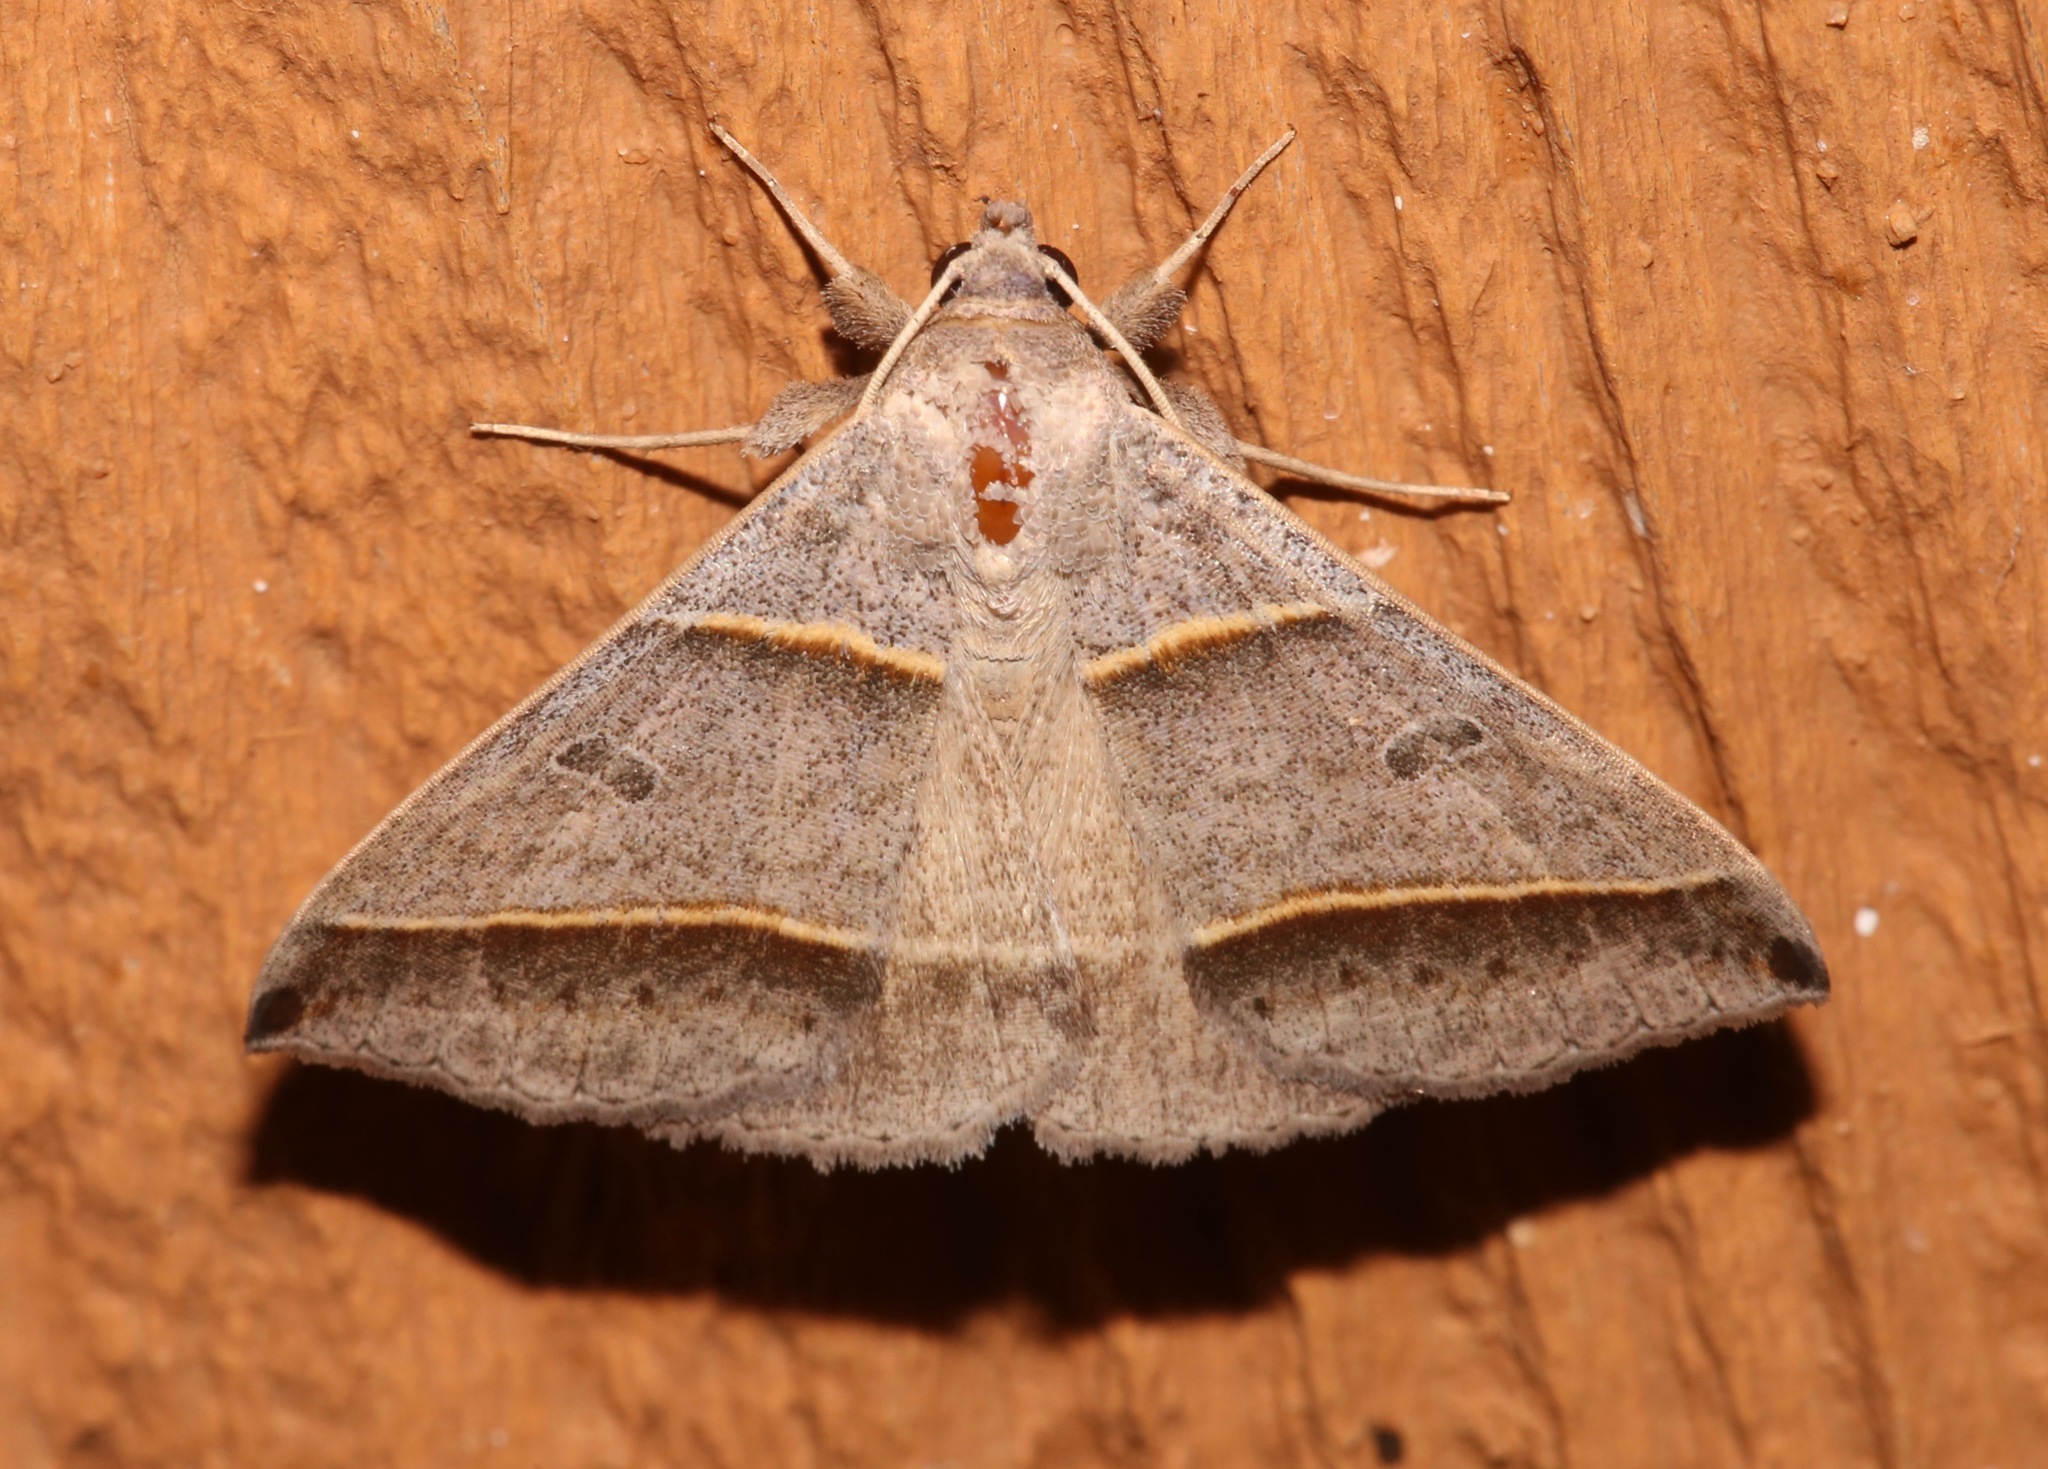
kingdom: Animalia
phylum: Arthropoda
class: Insecta
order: Lepidoptera
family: Erebidae
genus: Ptichodis
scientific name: Ptichodis vinculum
